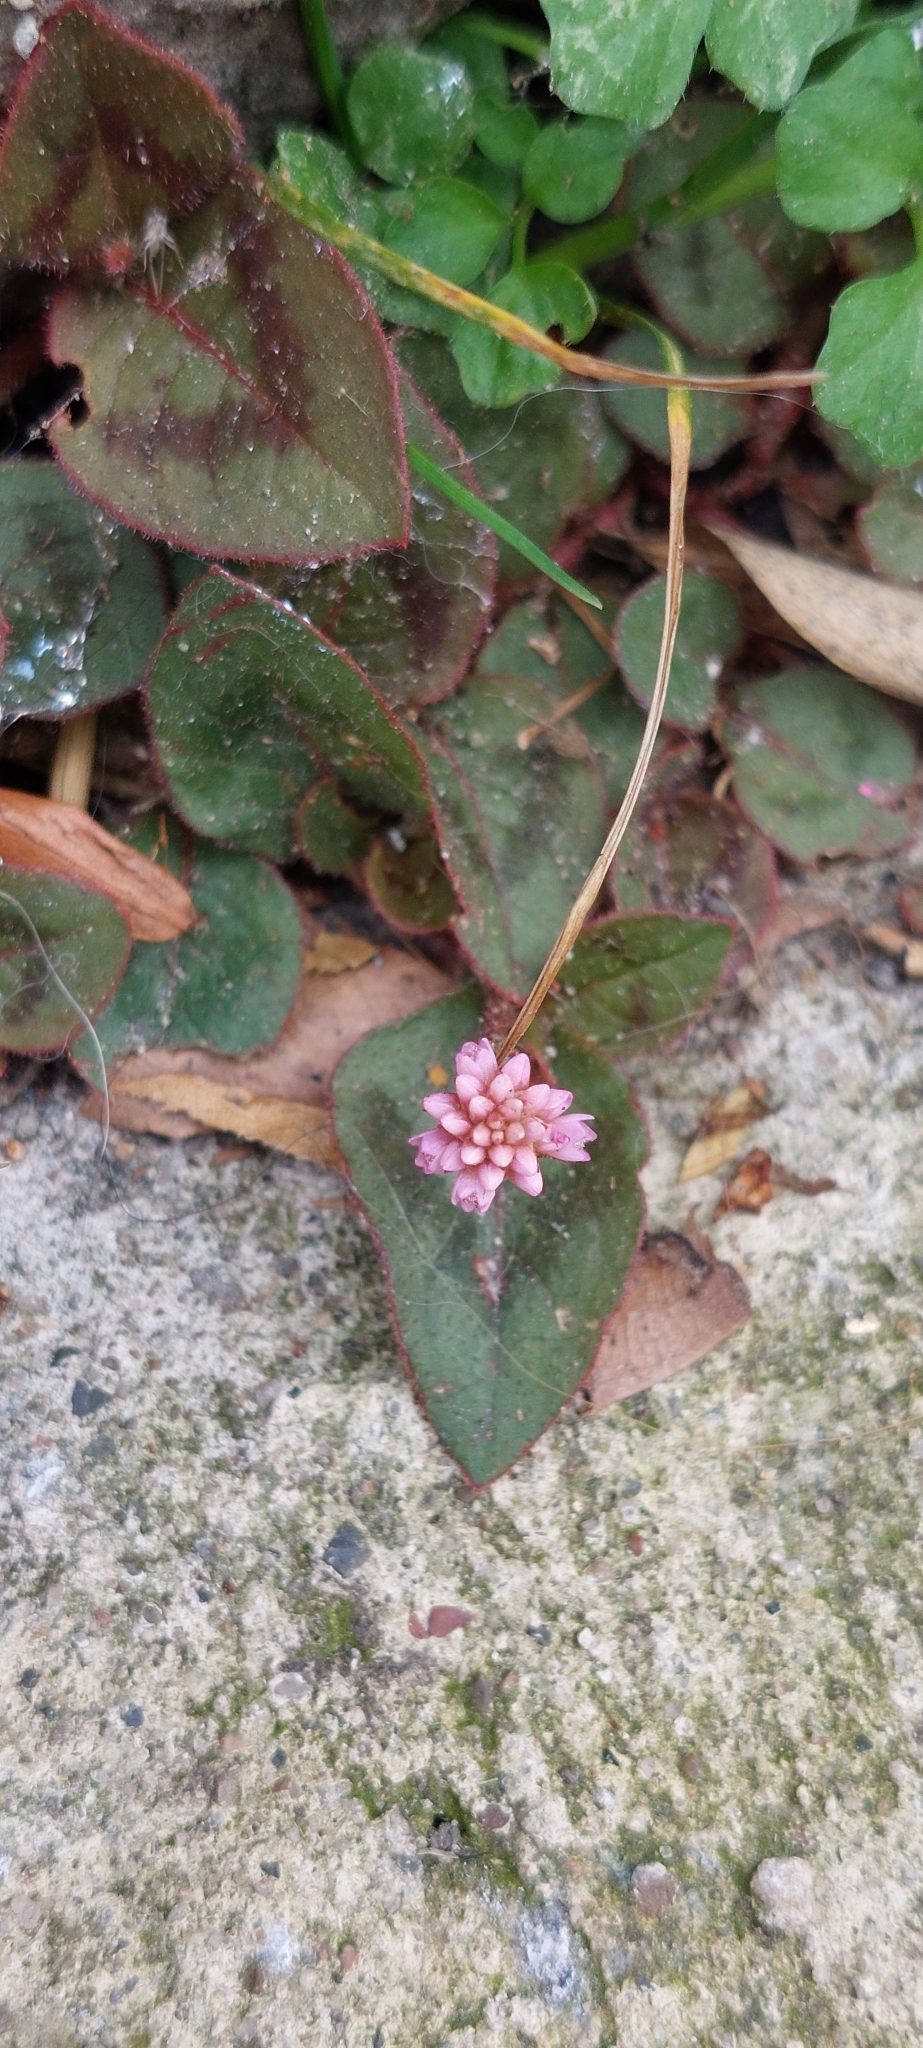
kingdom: Plantae
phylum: Tracheophyta
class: Magnoliopsida
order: Caryophyllales
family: Polygonaceae
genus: Persicaria
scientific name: Persicaria capitata
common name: Pinkhead smartweed
